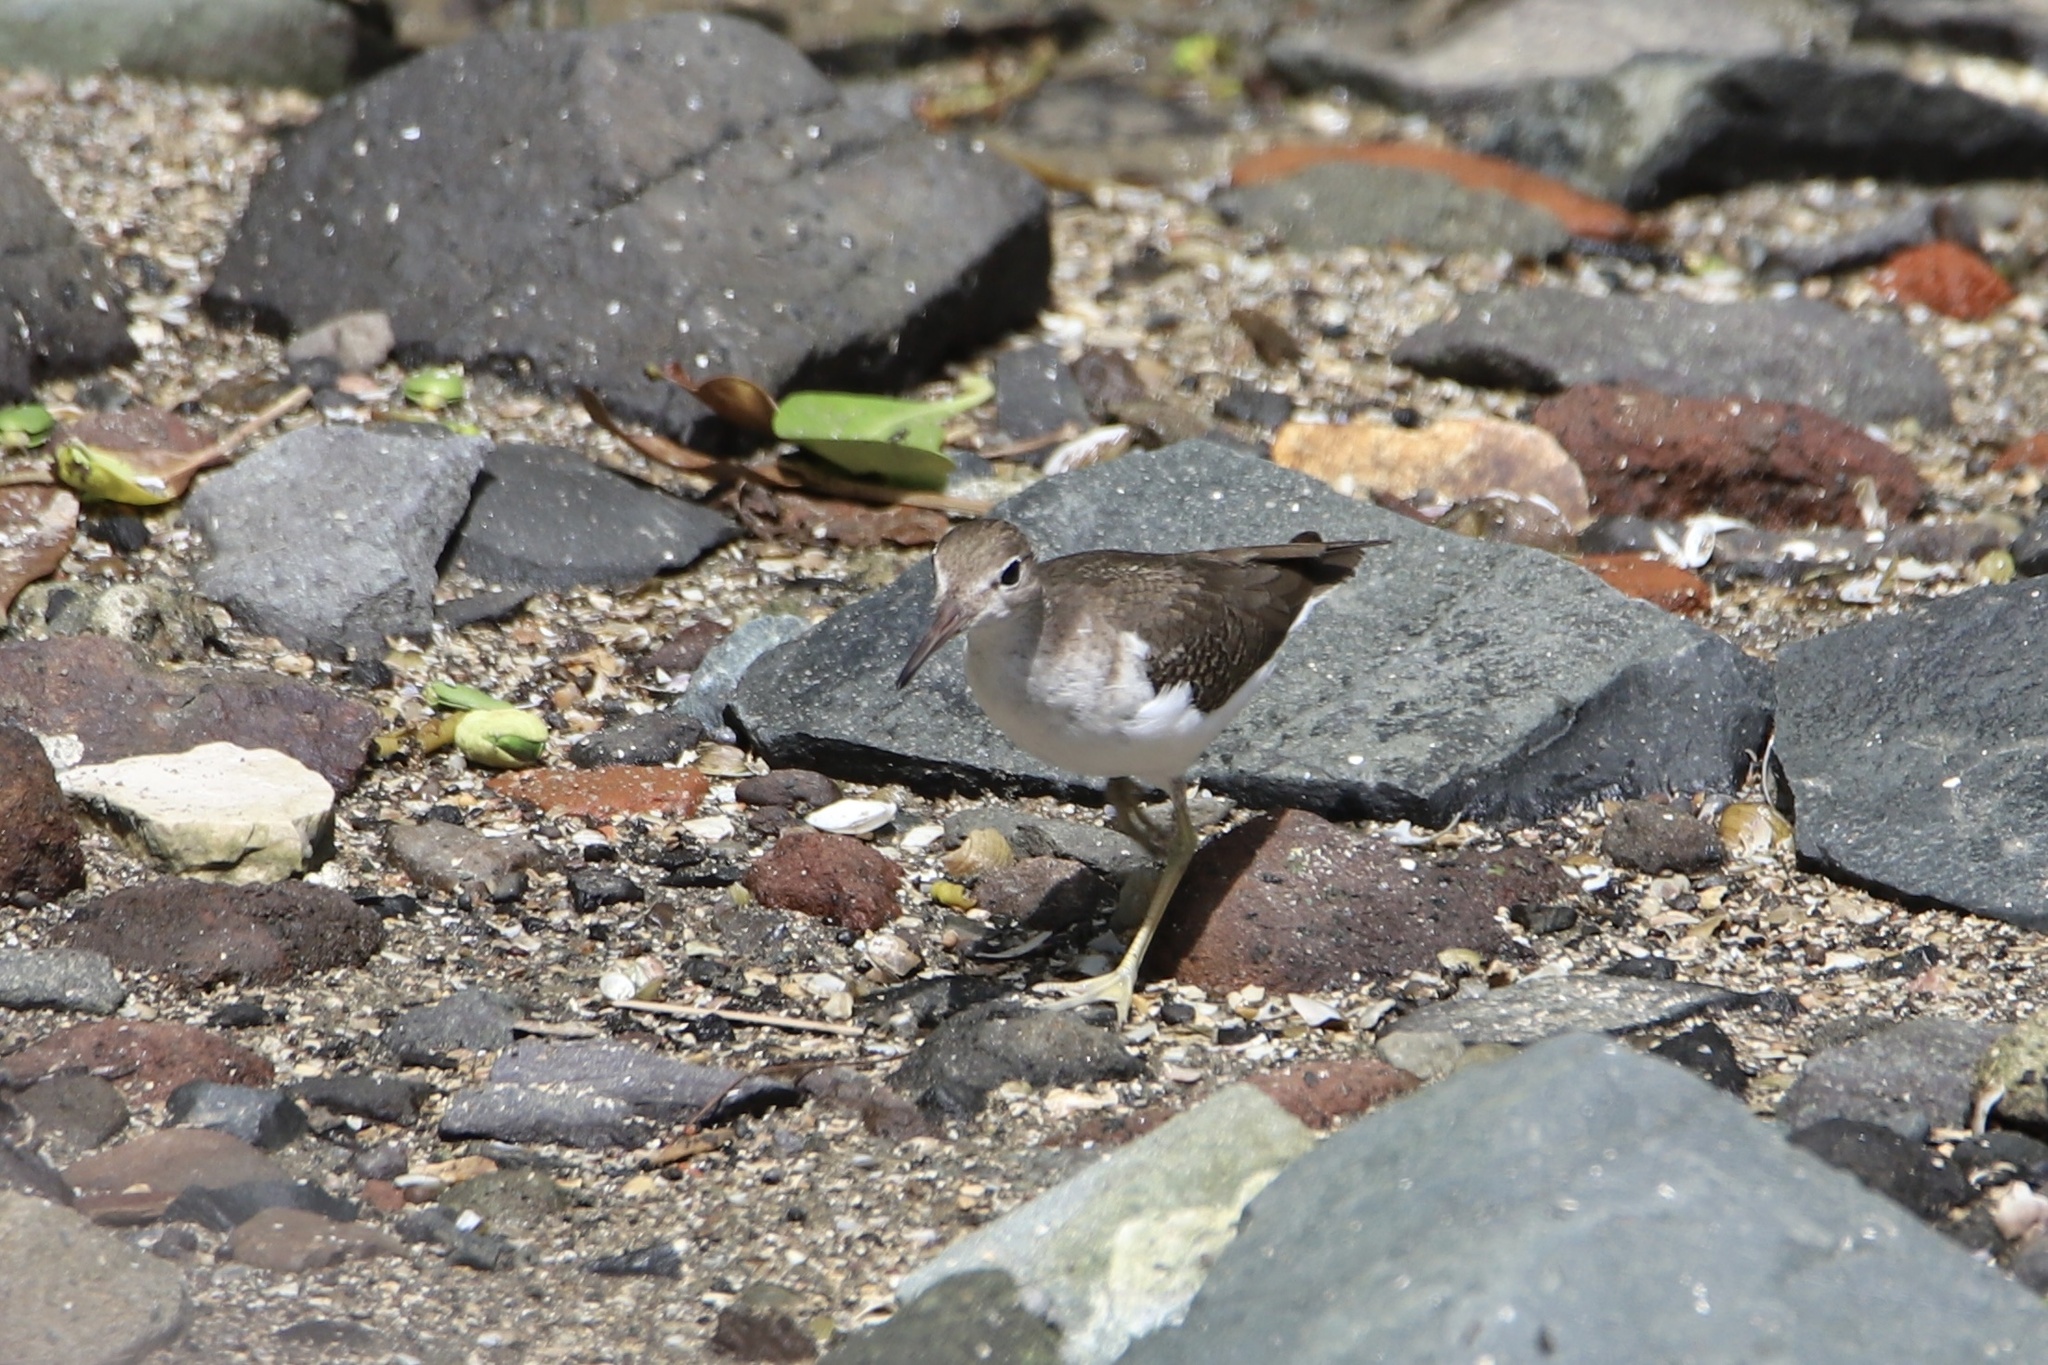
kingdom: Animalia
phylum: Chordata
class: Aves
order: Charadriiformes
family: Scolopacidae
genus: Actitis
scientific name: Actitis macularius
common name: Spotted sandpiper
